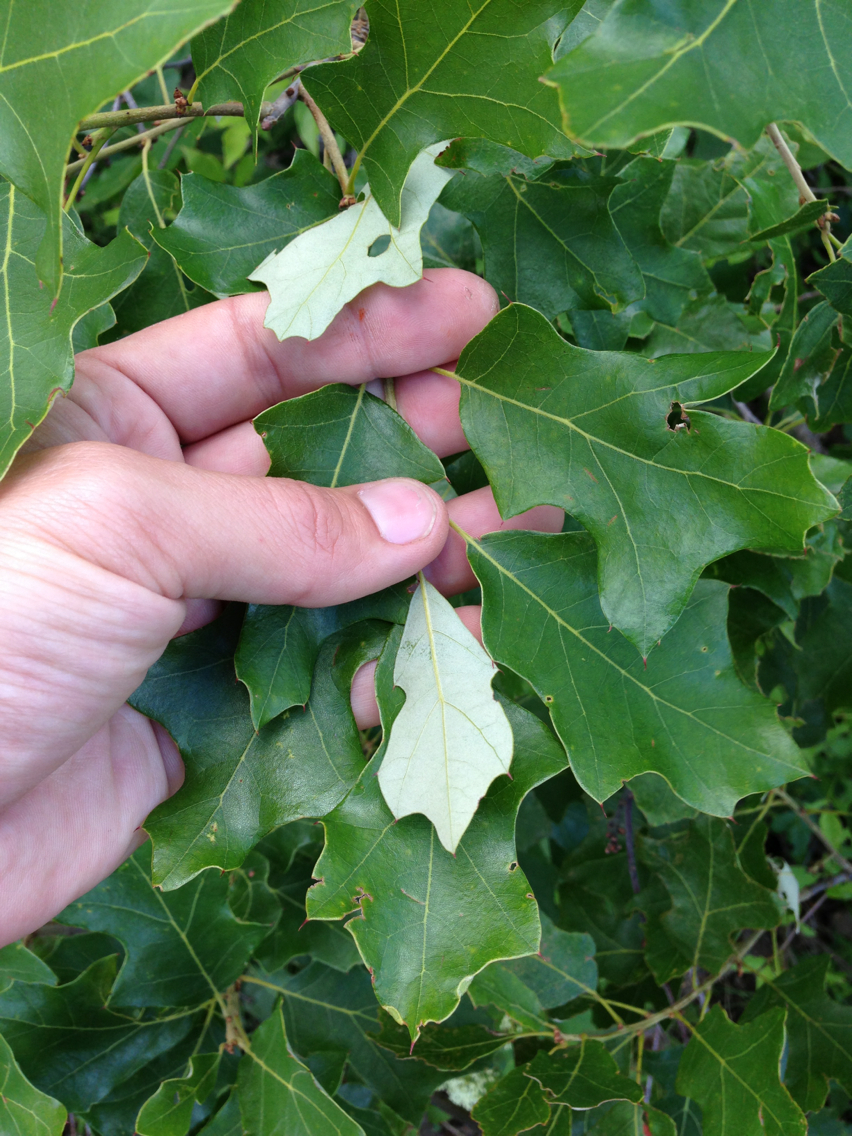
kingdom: Plantae
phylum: Tracheophyta
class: Magnoliopsida
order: Fagales
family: Fagaceae
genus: Quercus
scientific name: Quercus ilicifolia
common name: Bear oak
